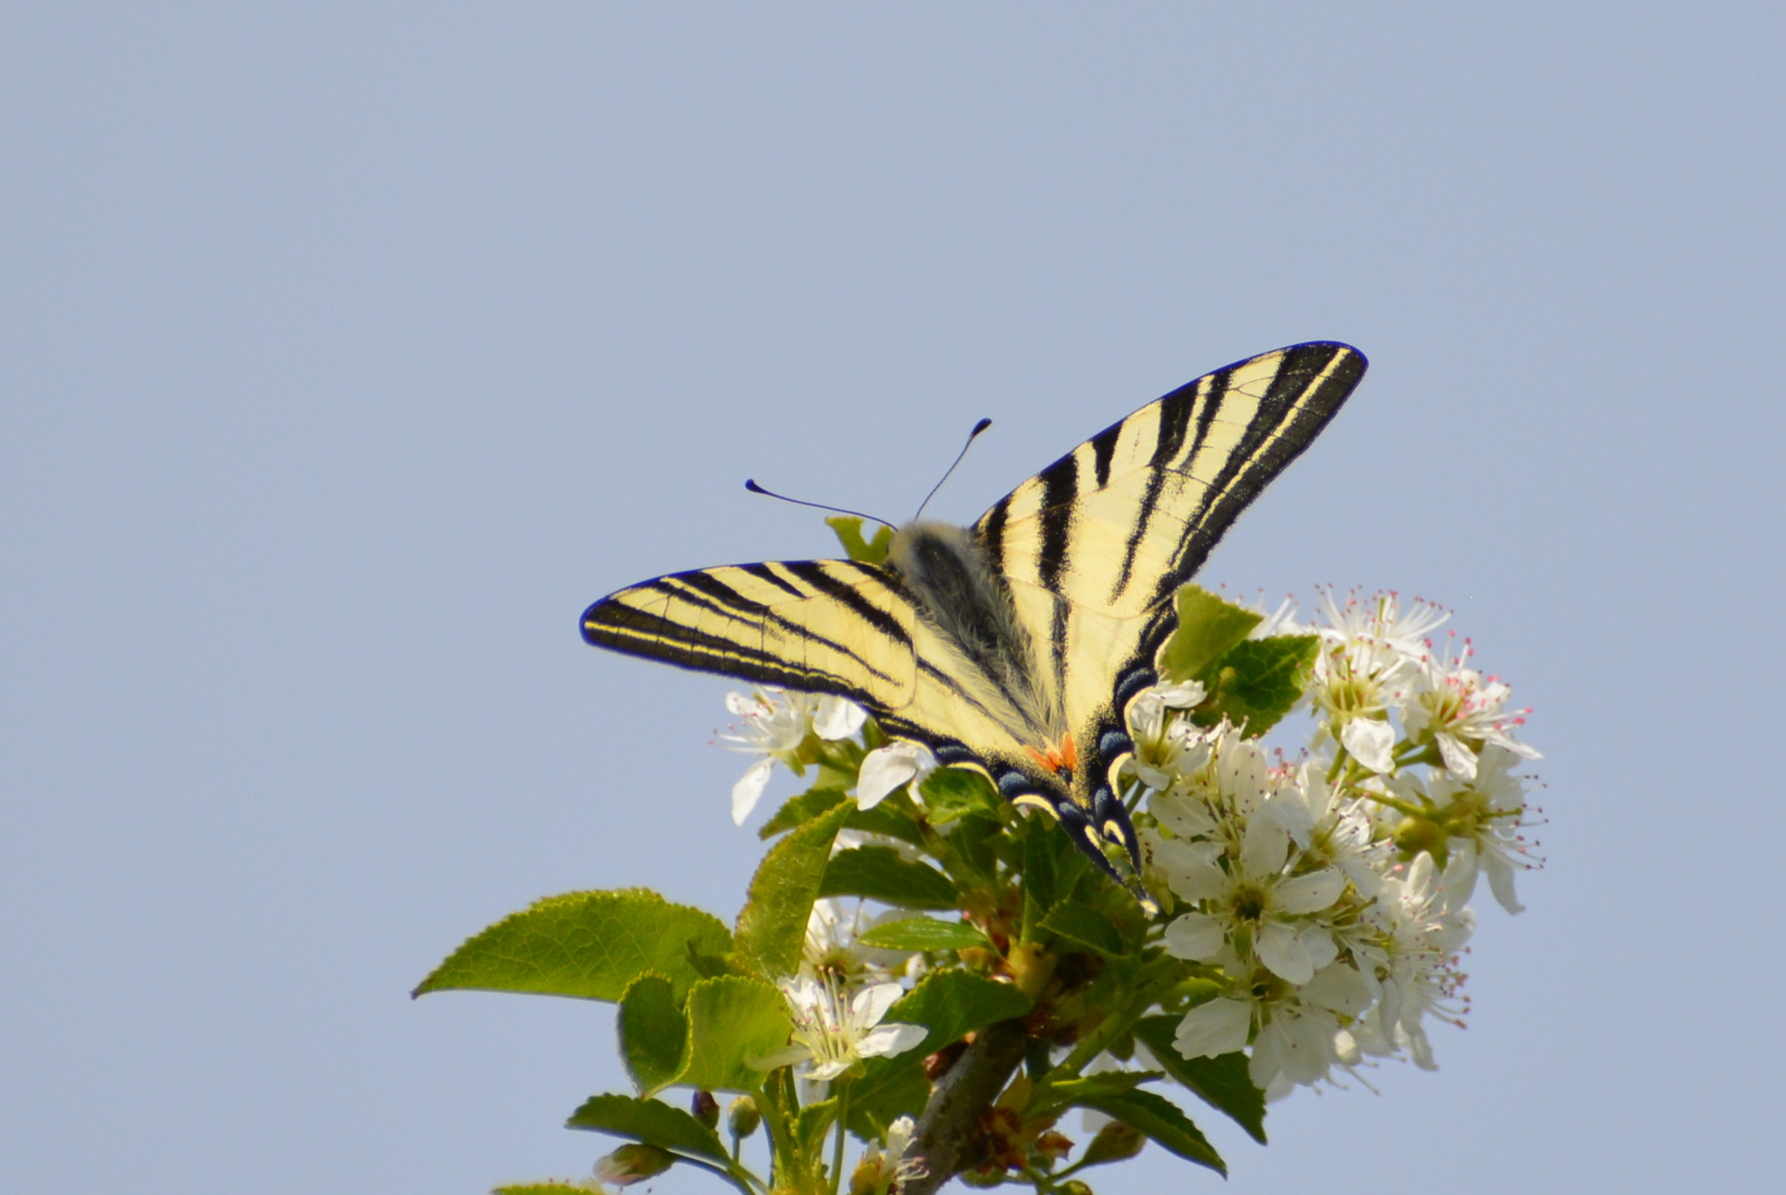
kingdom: Animalia
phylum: Arthropoda
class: Insecta
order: Lepidoptera
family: Papilionidae
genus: Iphiclides
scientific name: Iphiclides podalirius
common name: Scarce swallowtail
